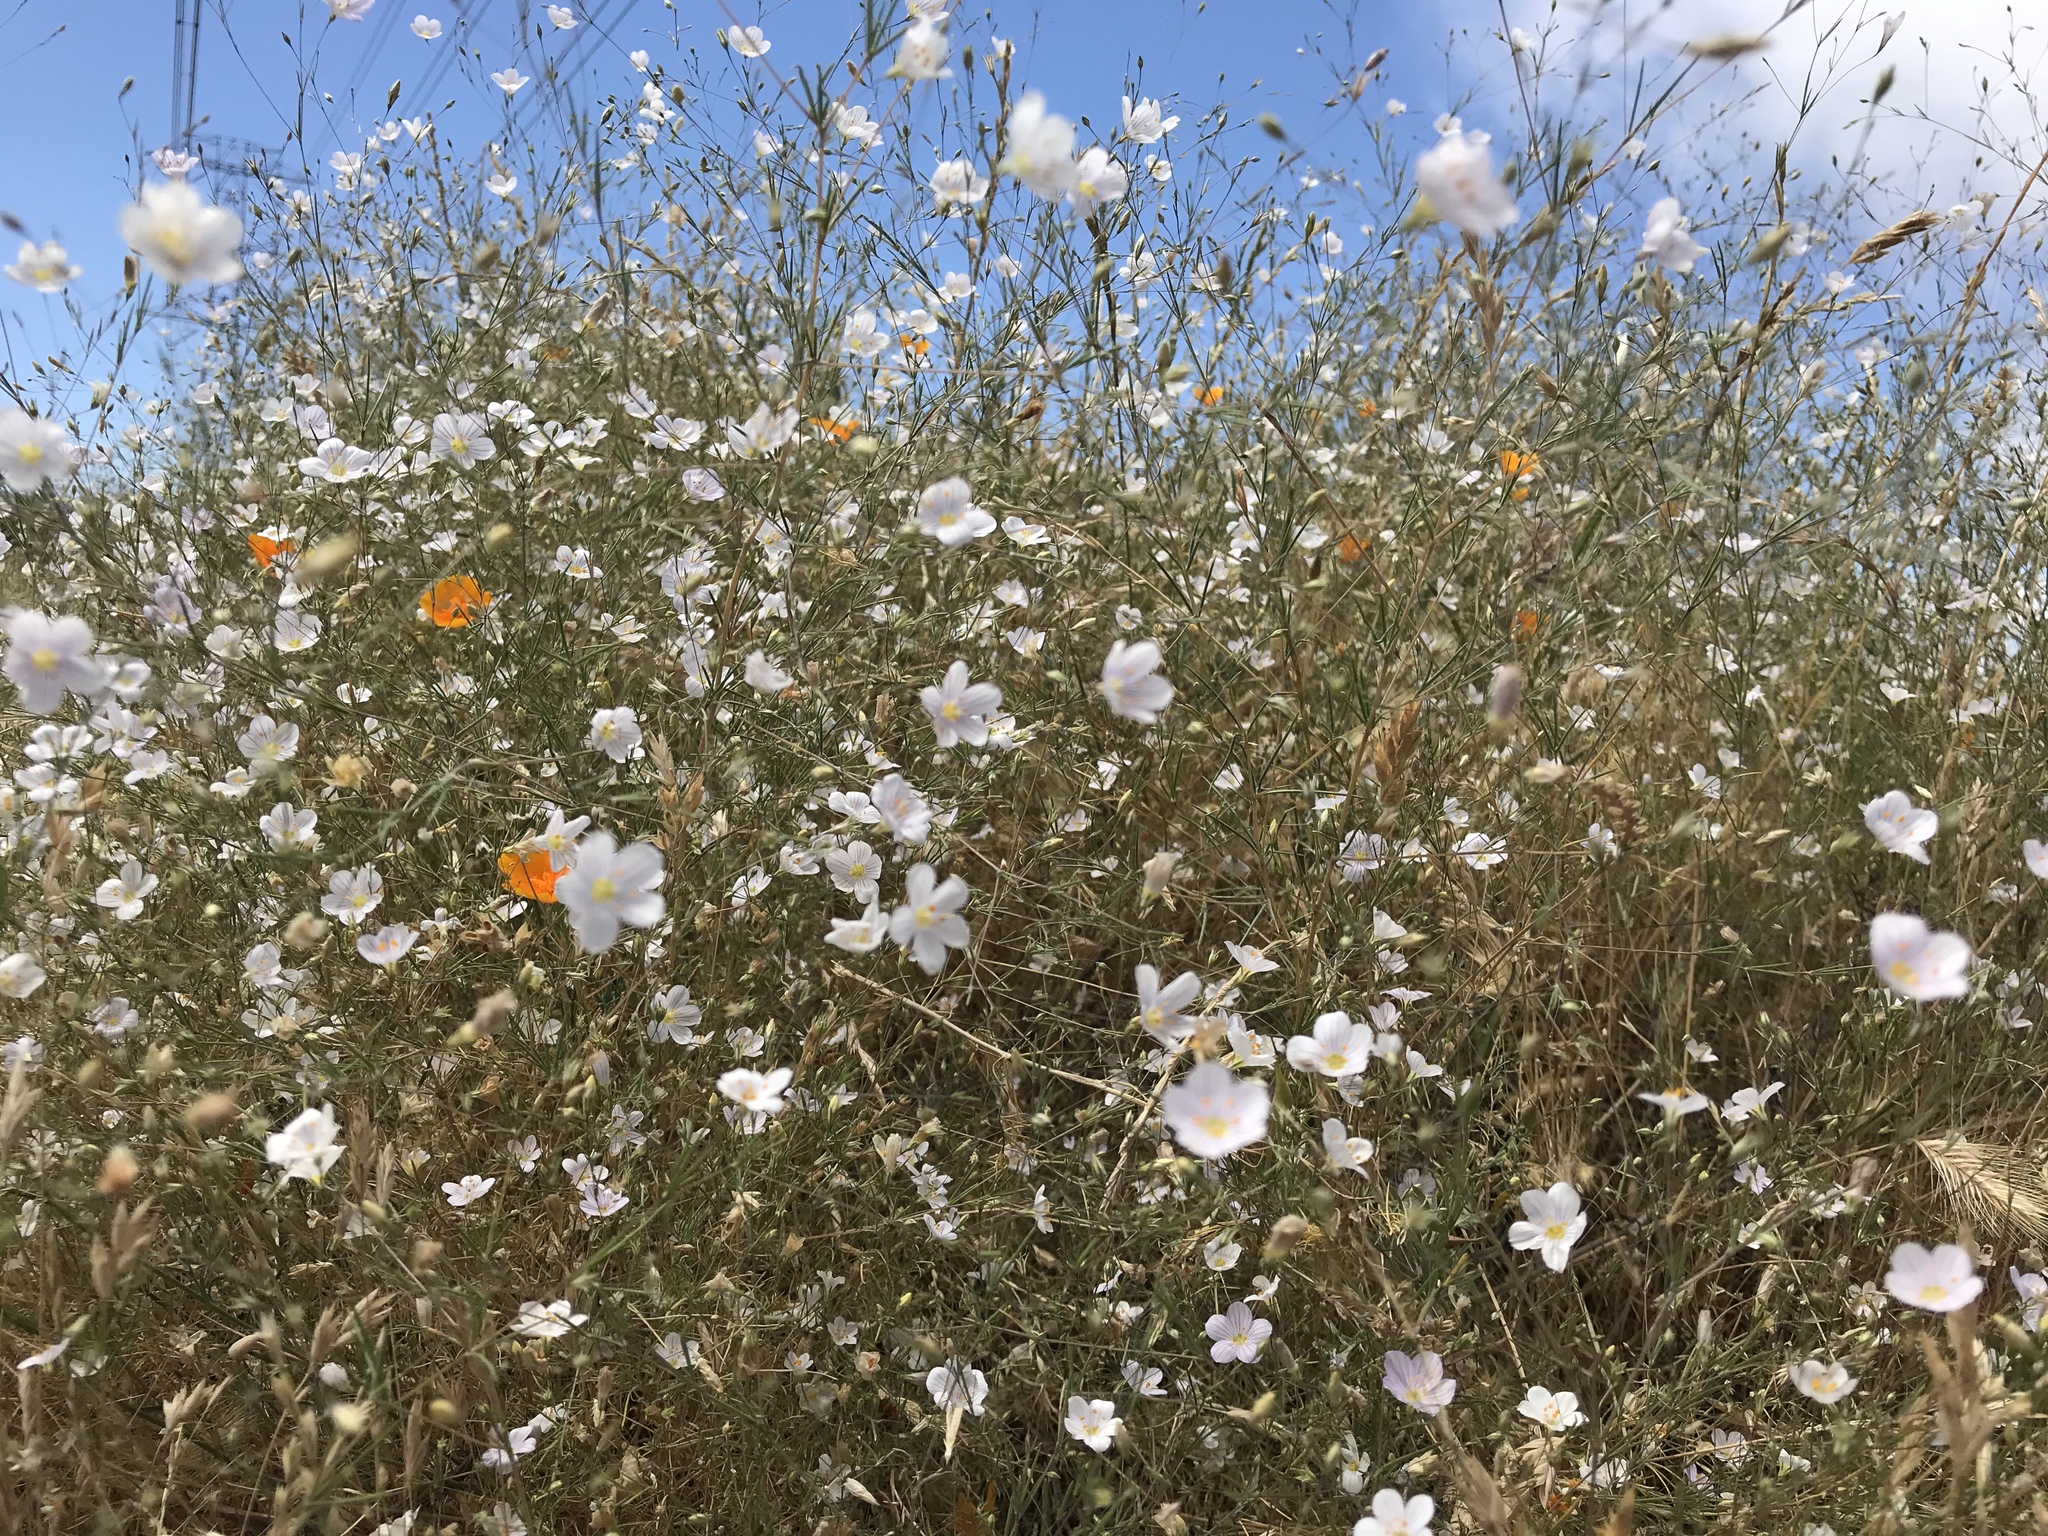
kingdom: Plantae
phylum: Tracheophyta
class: Magnoliopsida
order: Ericales
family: Polemoniaceae
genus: Leptosiphon
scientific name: Leptosiphon liniflorus
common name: Narrowflower flaxflower
